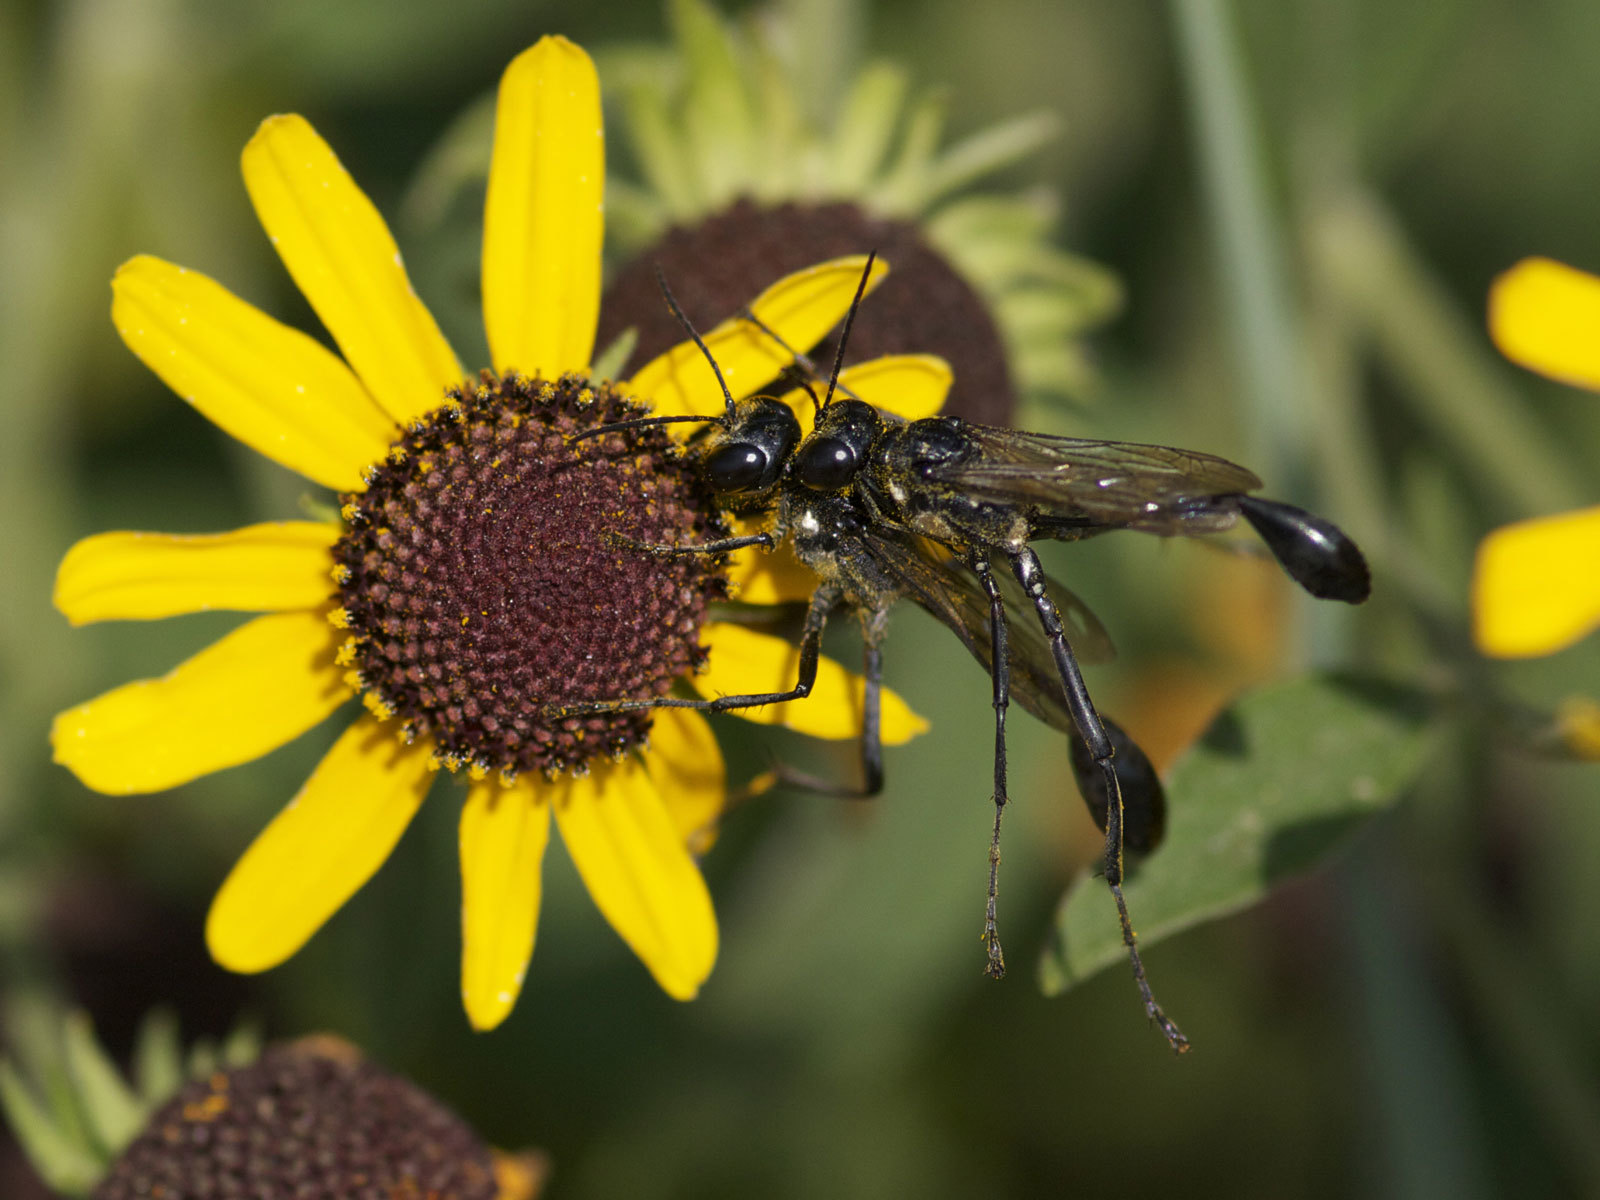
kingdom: Animalia
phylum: Arthropoda
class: Insecta
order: Hymenoptera
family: Sphecidae
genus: Eremnophila
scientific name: Eremnophila aureonotata
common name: Gold-marked thread-waisted wasp
